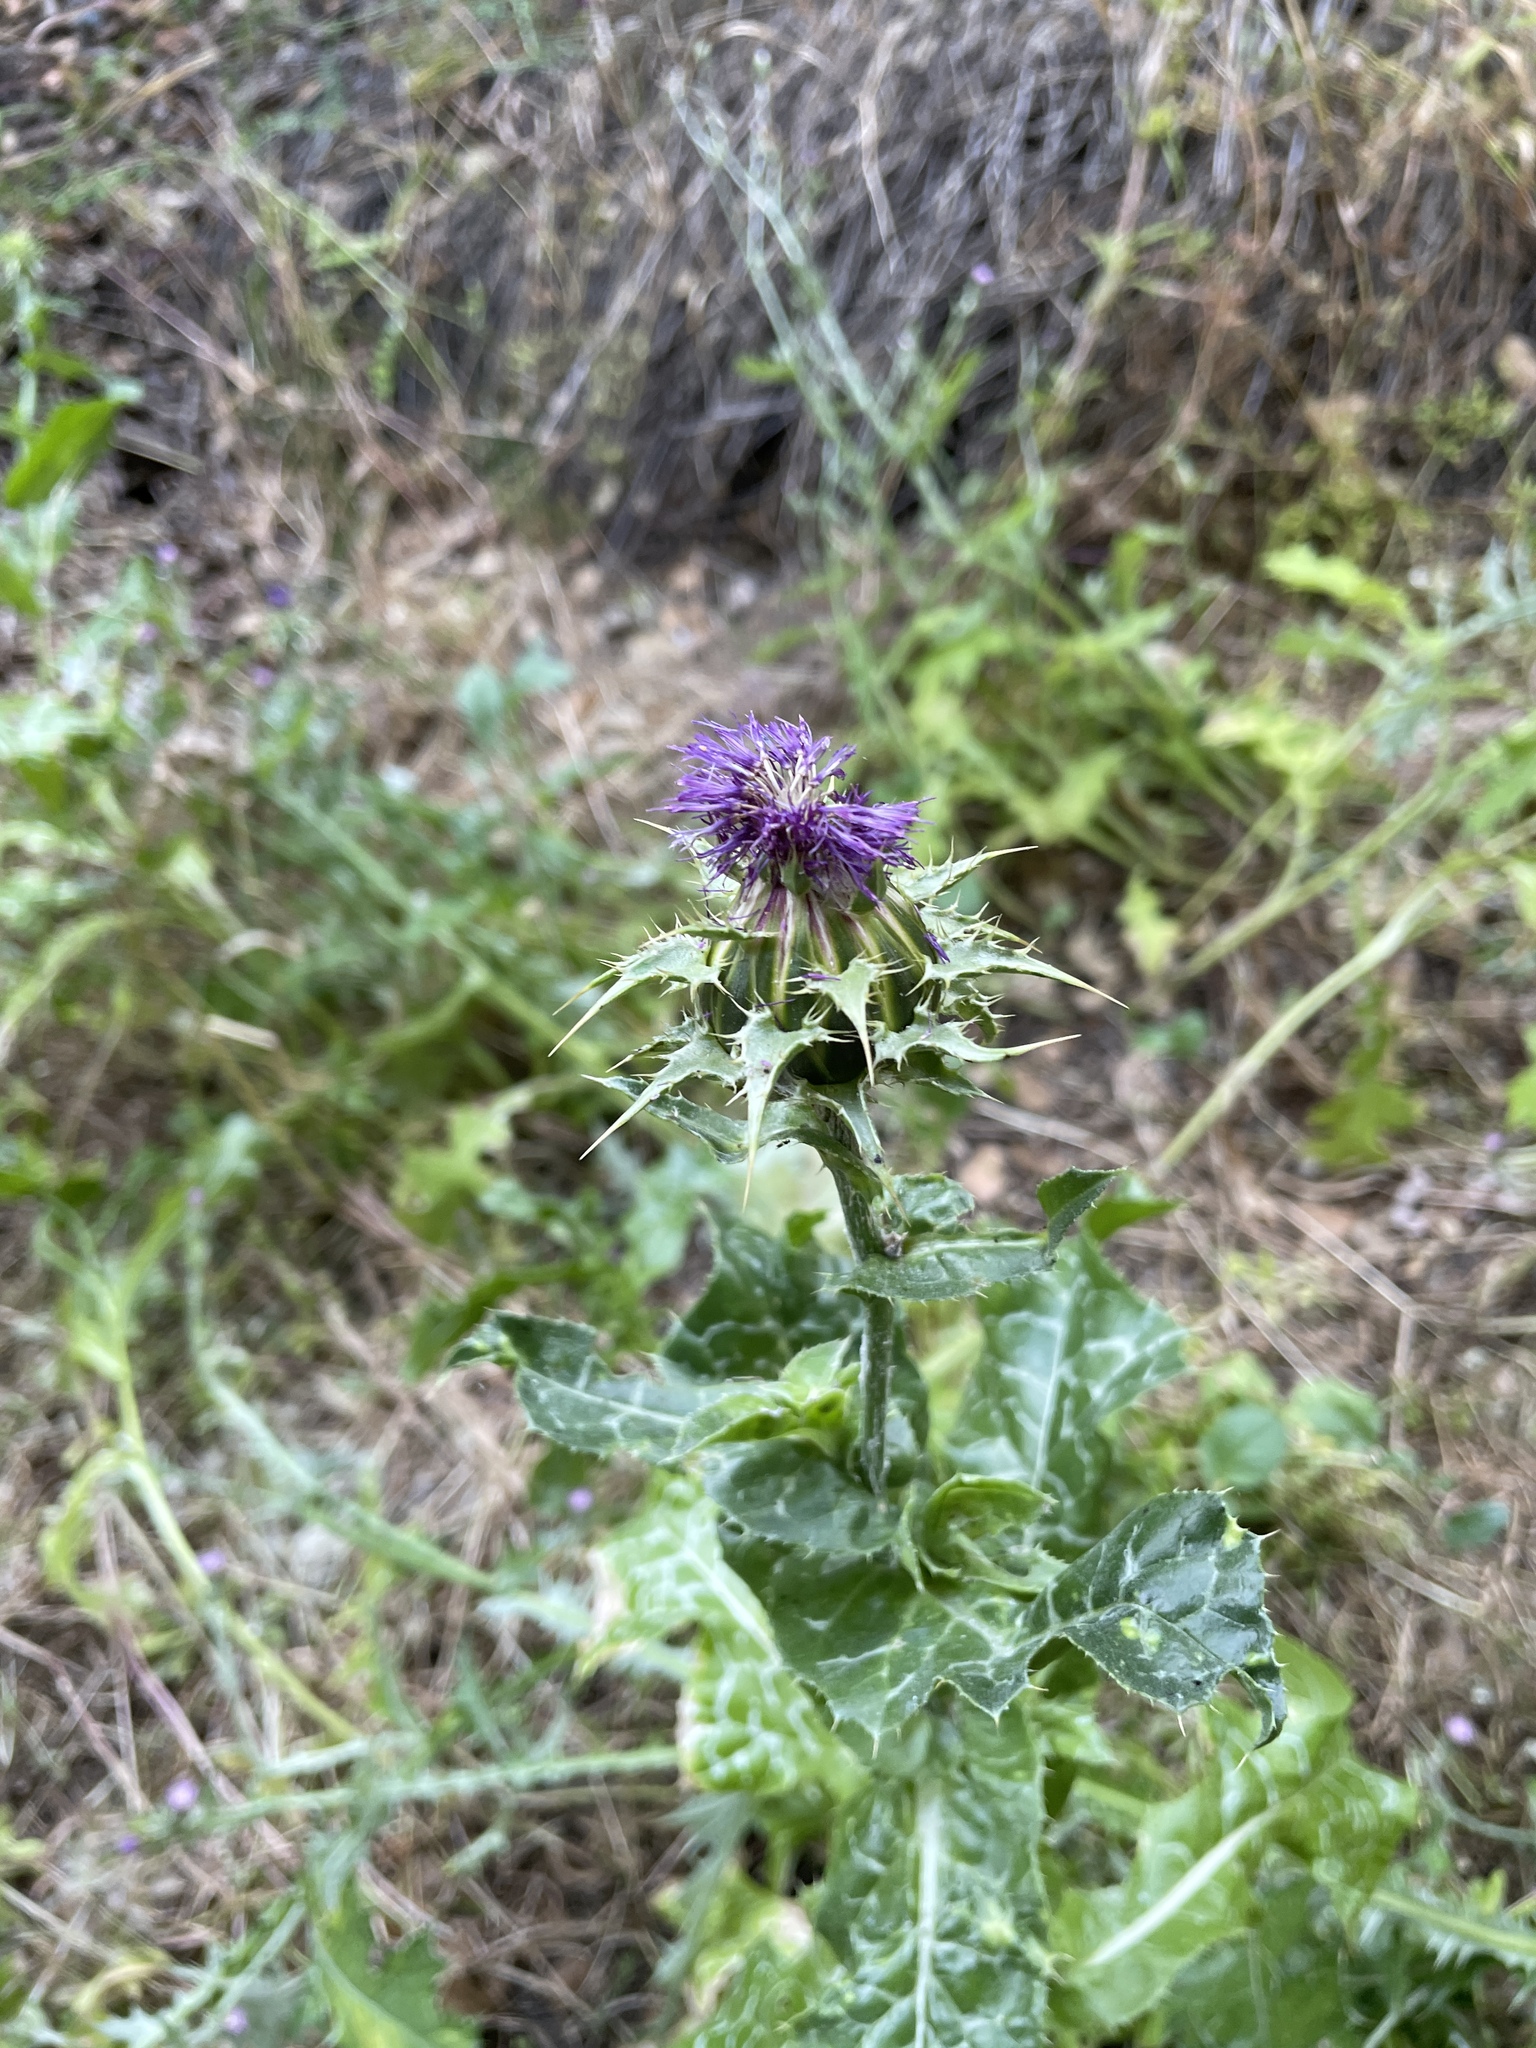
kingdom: Plantae
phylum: Tracheophyta
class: Magnoliopsida
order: Asterales
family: Asteraceae
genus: Silybum
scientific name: Silybum marianum
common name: Milk thistle
